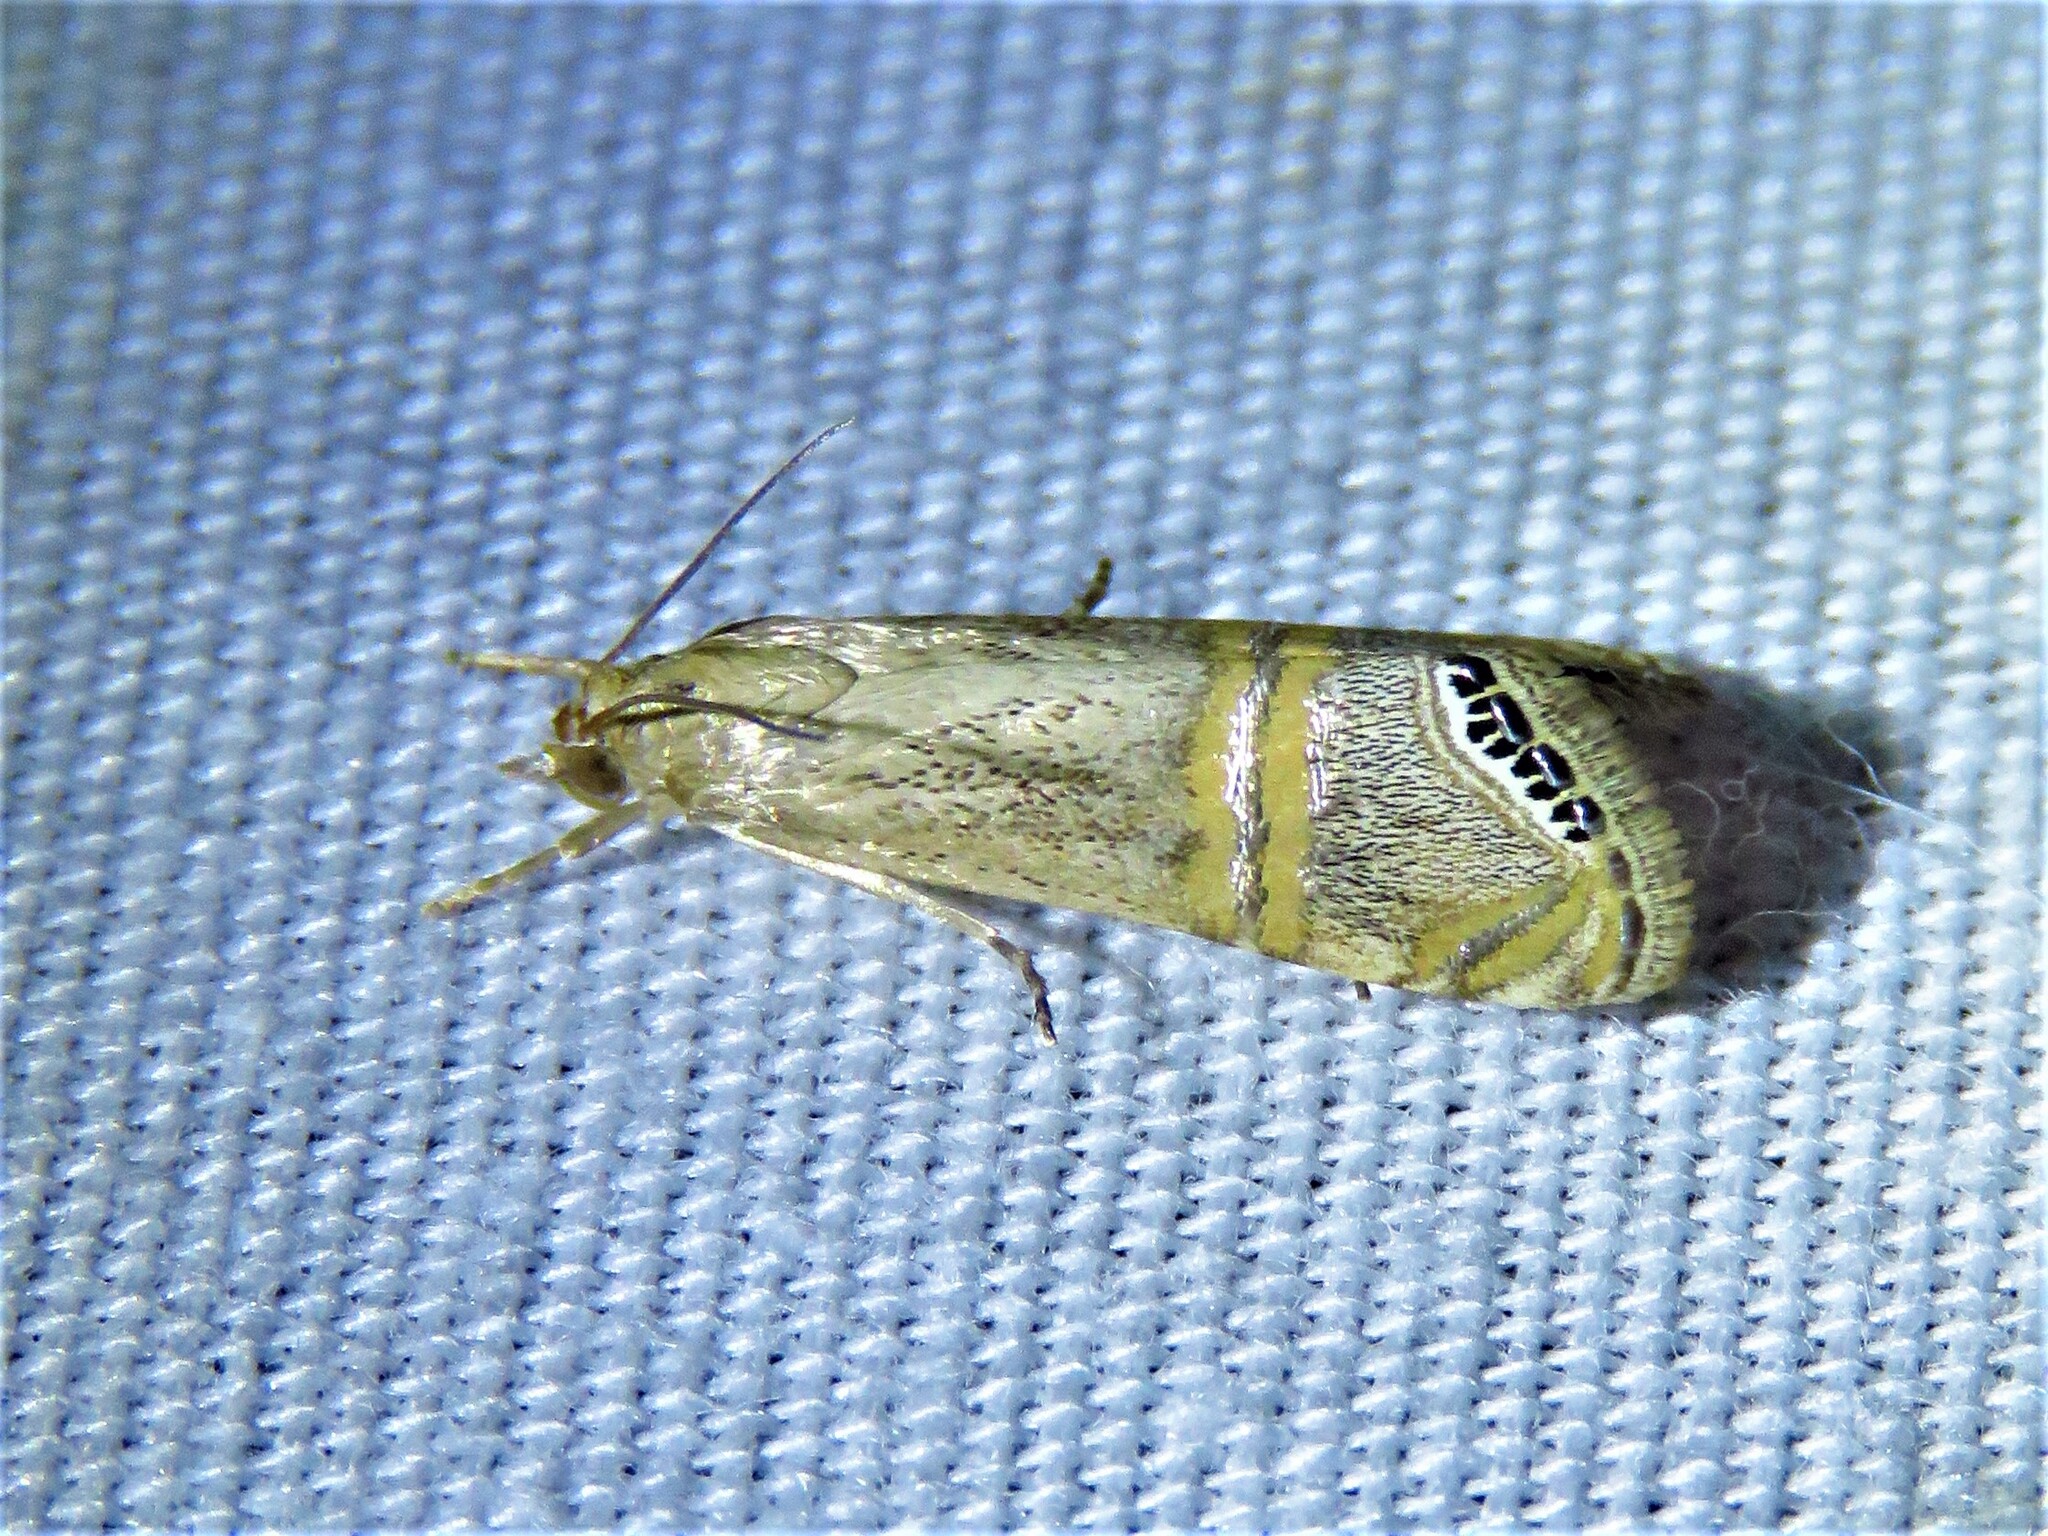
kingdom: Animalia
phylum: Arthropoda
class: Insecta
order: Lepidoptera
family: Crambidae
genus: Euchromius
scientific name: Euchromius ocellea
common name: Necklace veneer moth
